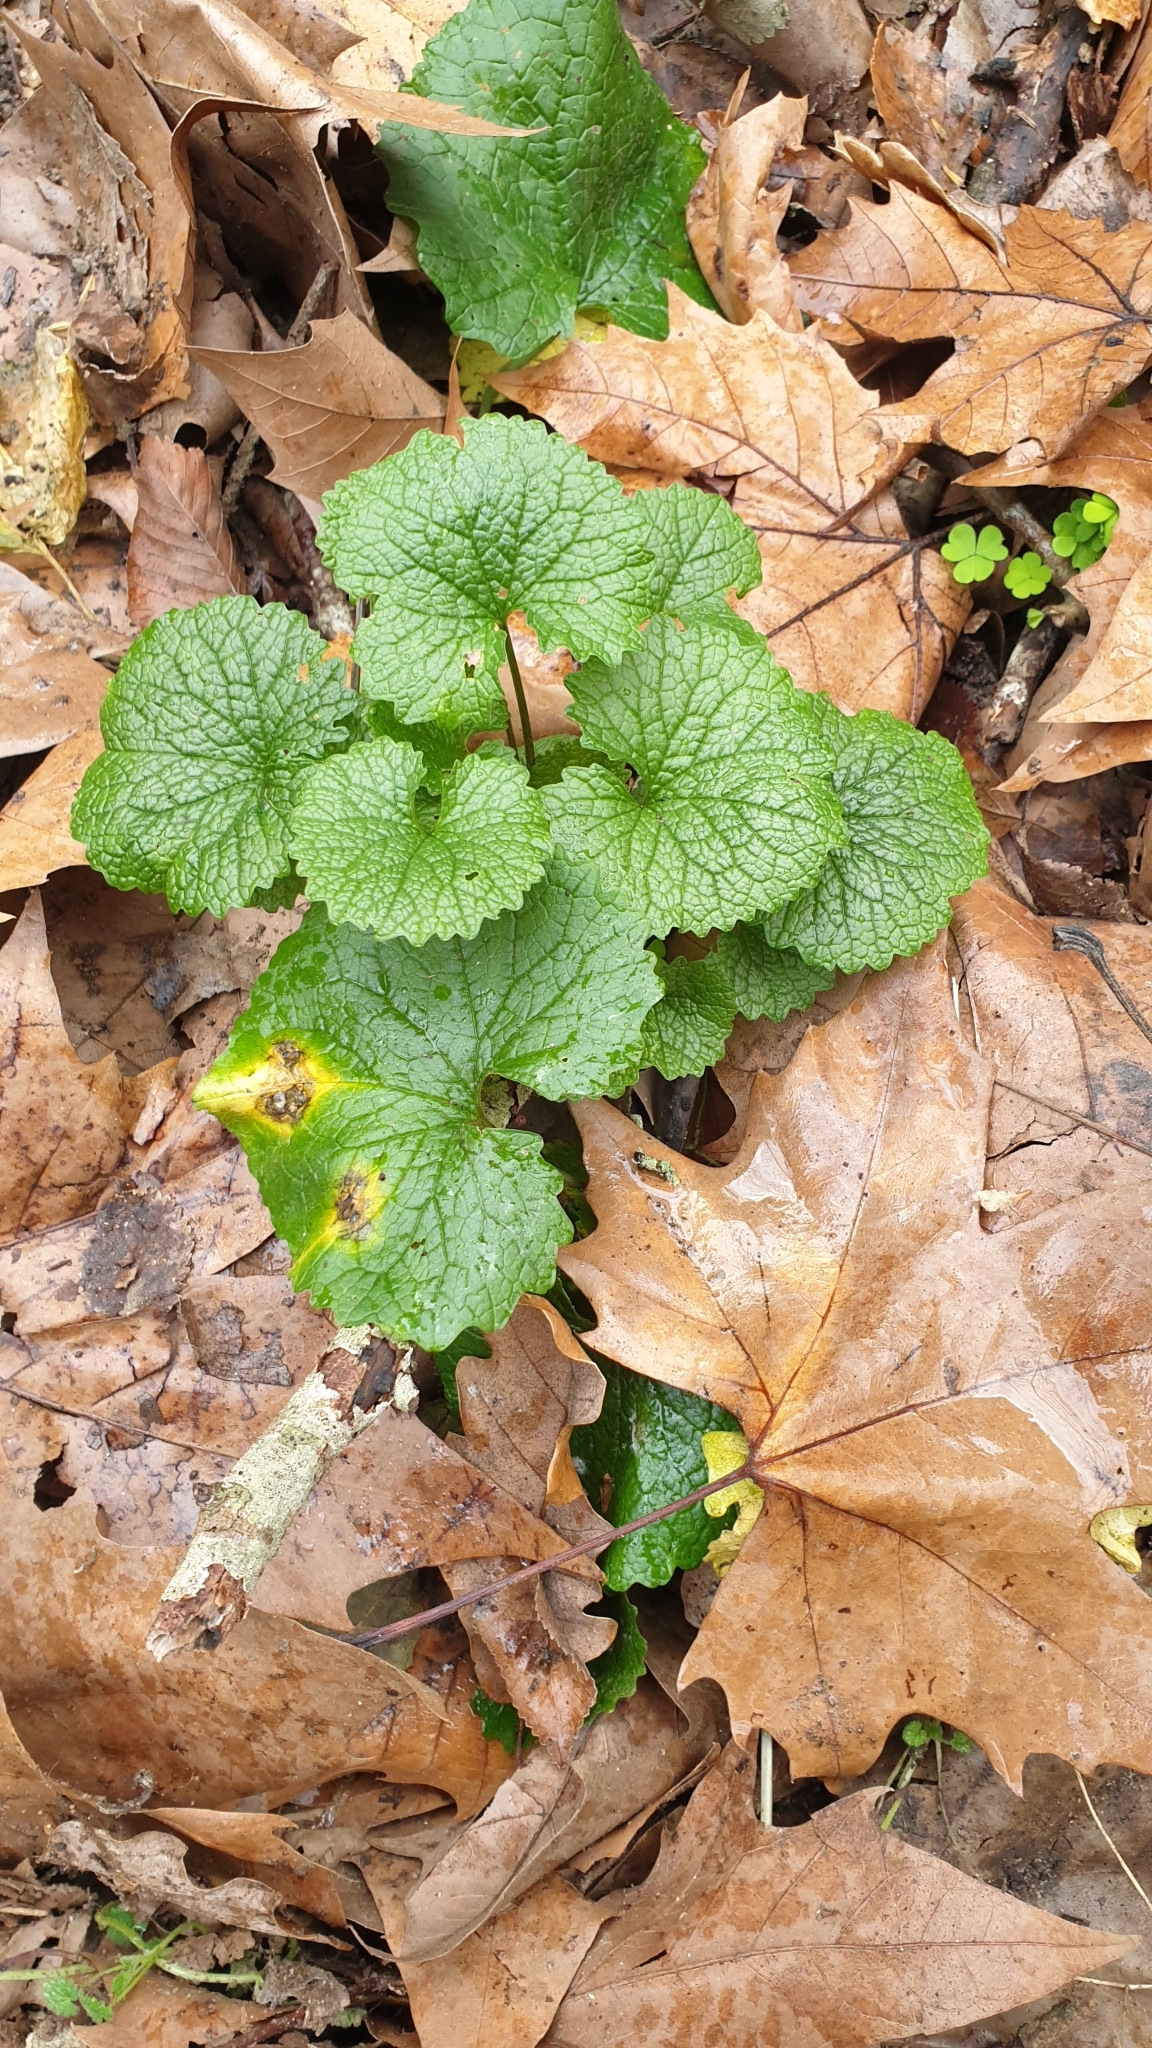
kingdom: Plantae
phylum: Tracheophyta
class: Magnoliopsida
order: Brassicales
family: Brassicaceae
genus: Alliaria
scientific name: Alliaria petiolata
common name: Garlic mustard
